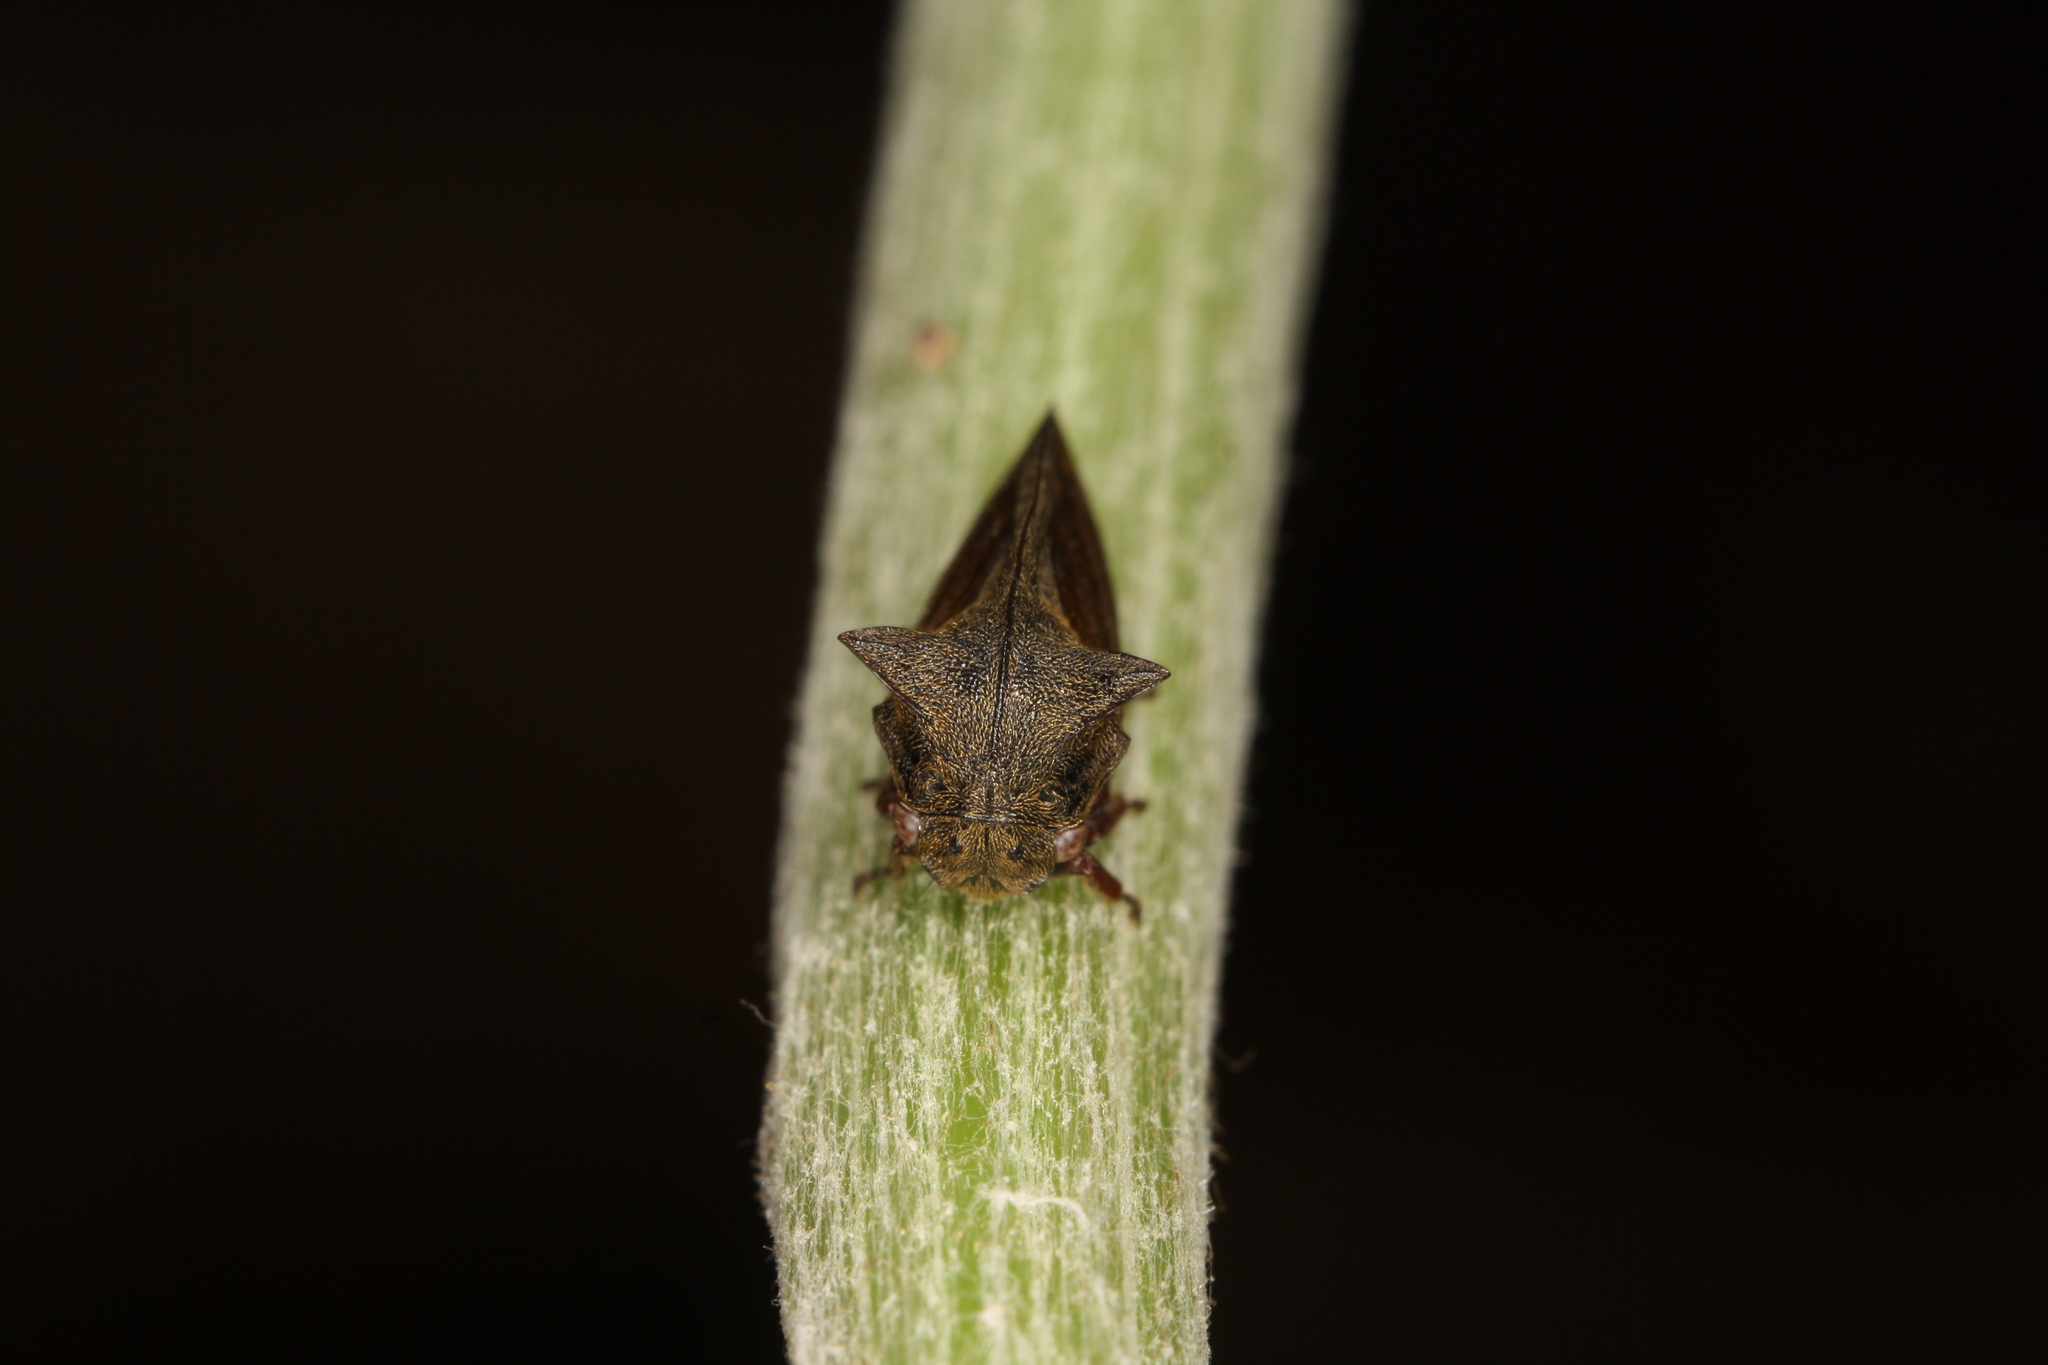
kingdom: Animalia
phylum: Arthropoda
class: Insecta
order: Hemiptera
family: Membracidae
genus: Centrotus
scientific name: Centrotus cornuta
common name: Treehopper
